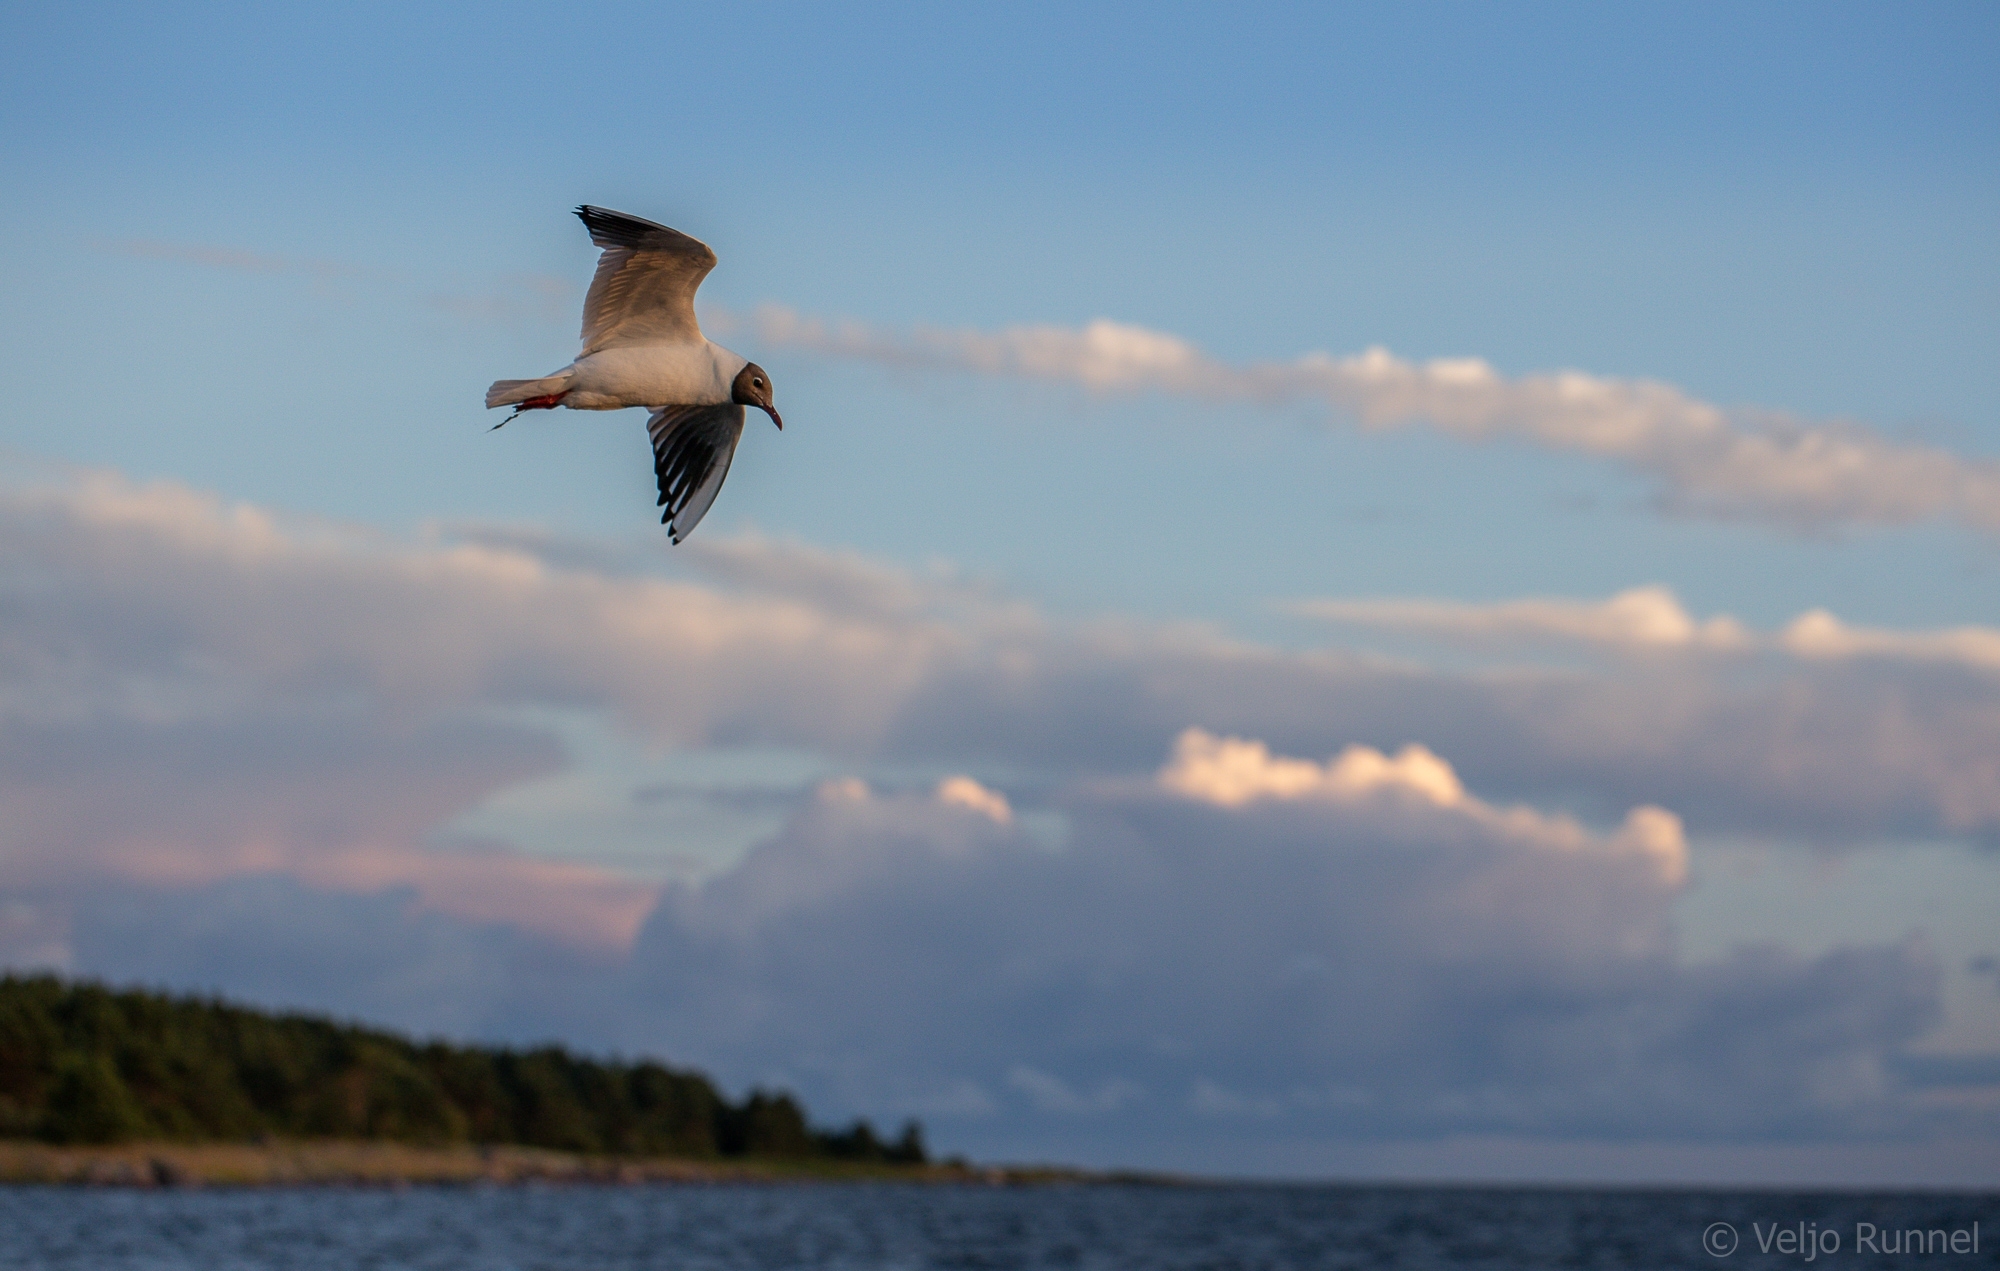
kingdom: Animalia
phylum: Chordata
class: Aves
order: Charadriiformes
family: Laridae
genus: Chroicocephalus
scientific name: Chroicocephalus ridibundus
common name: Black-headed gull
